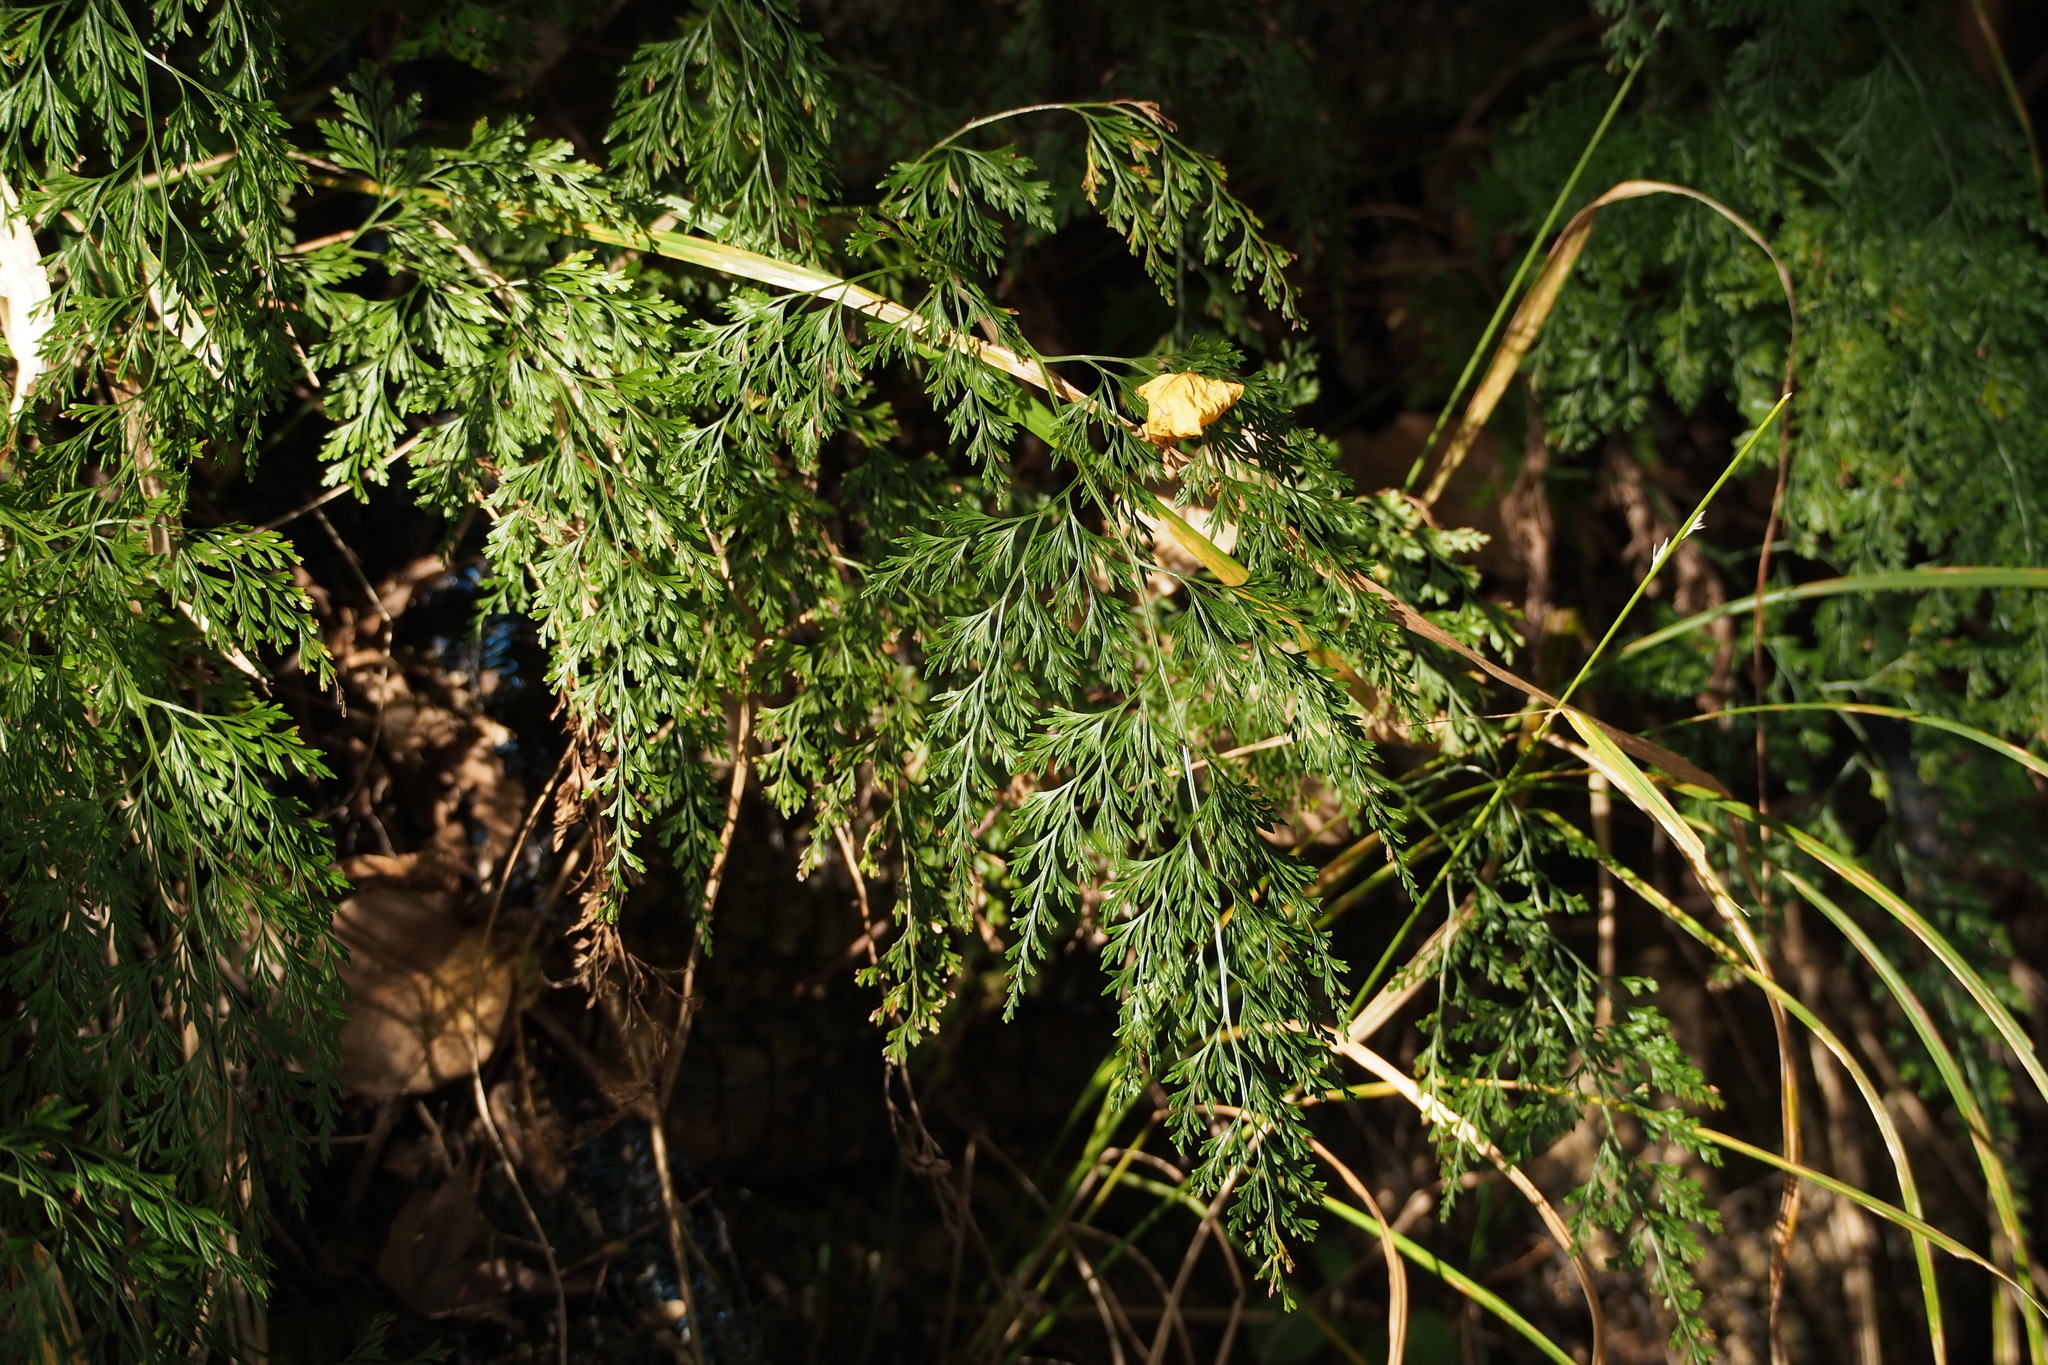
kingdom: Plantae
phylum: Tracheophyta
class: Polypodiopsida
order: Polypodiales
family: Pteridaceae
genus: Onychium
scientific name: Onychium japonicum
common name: Carrot fern
